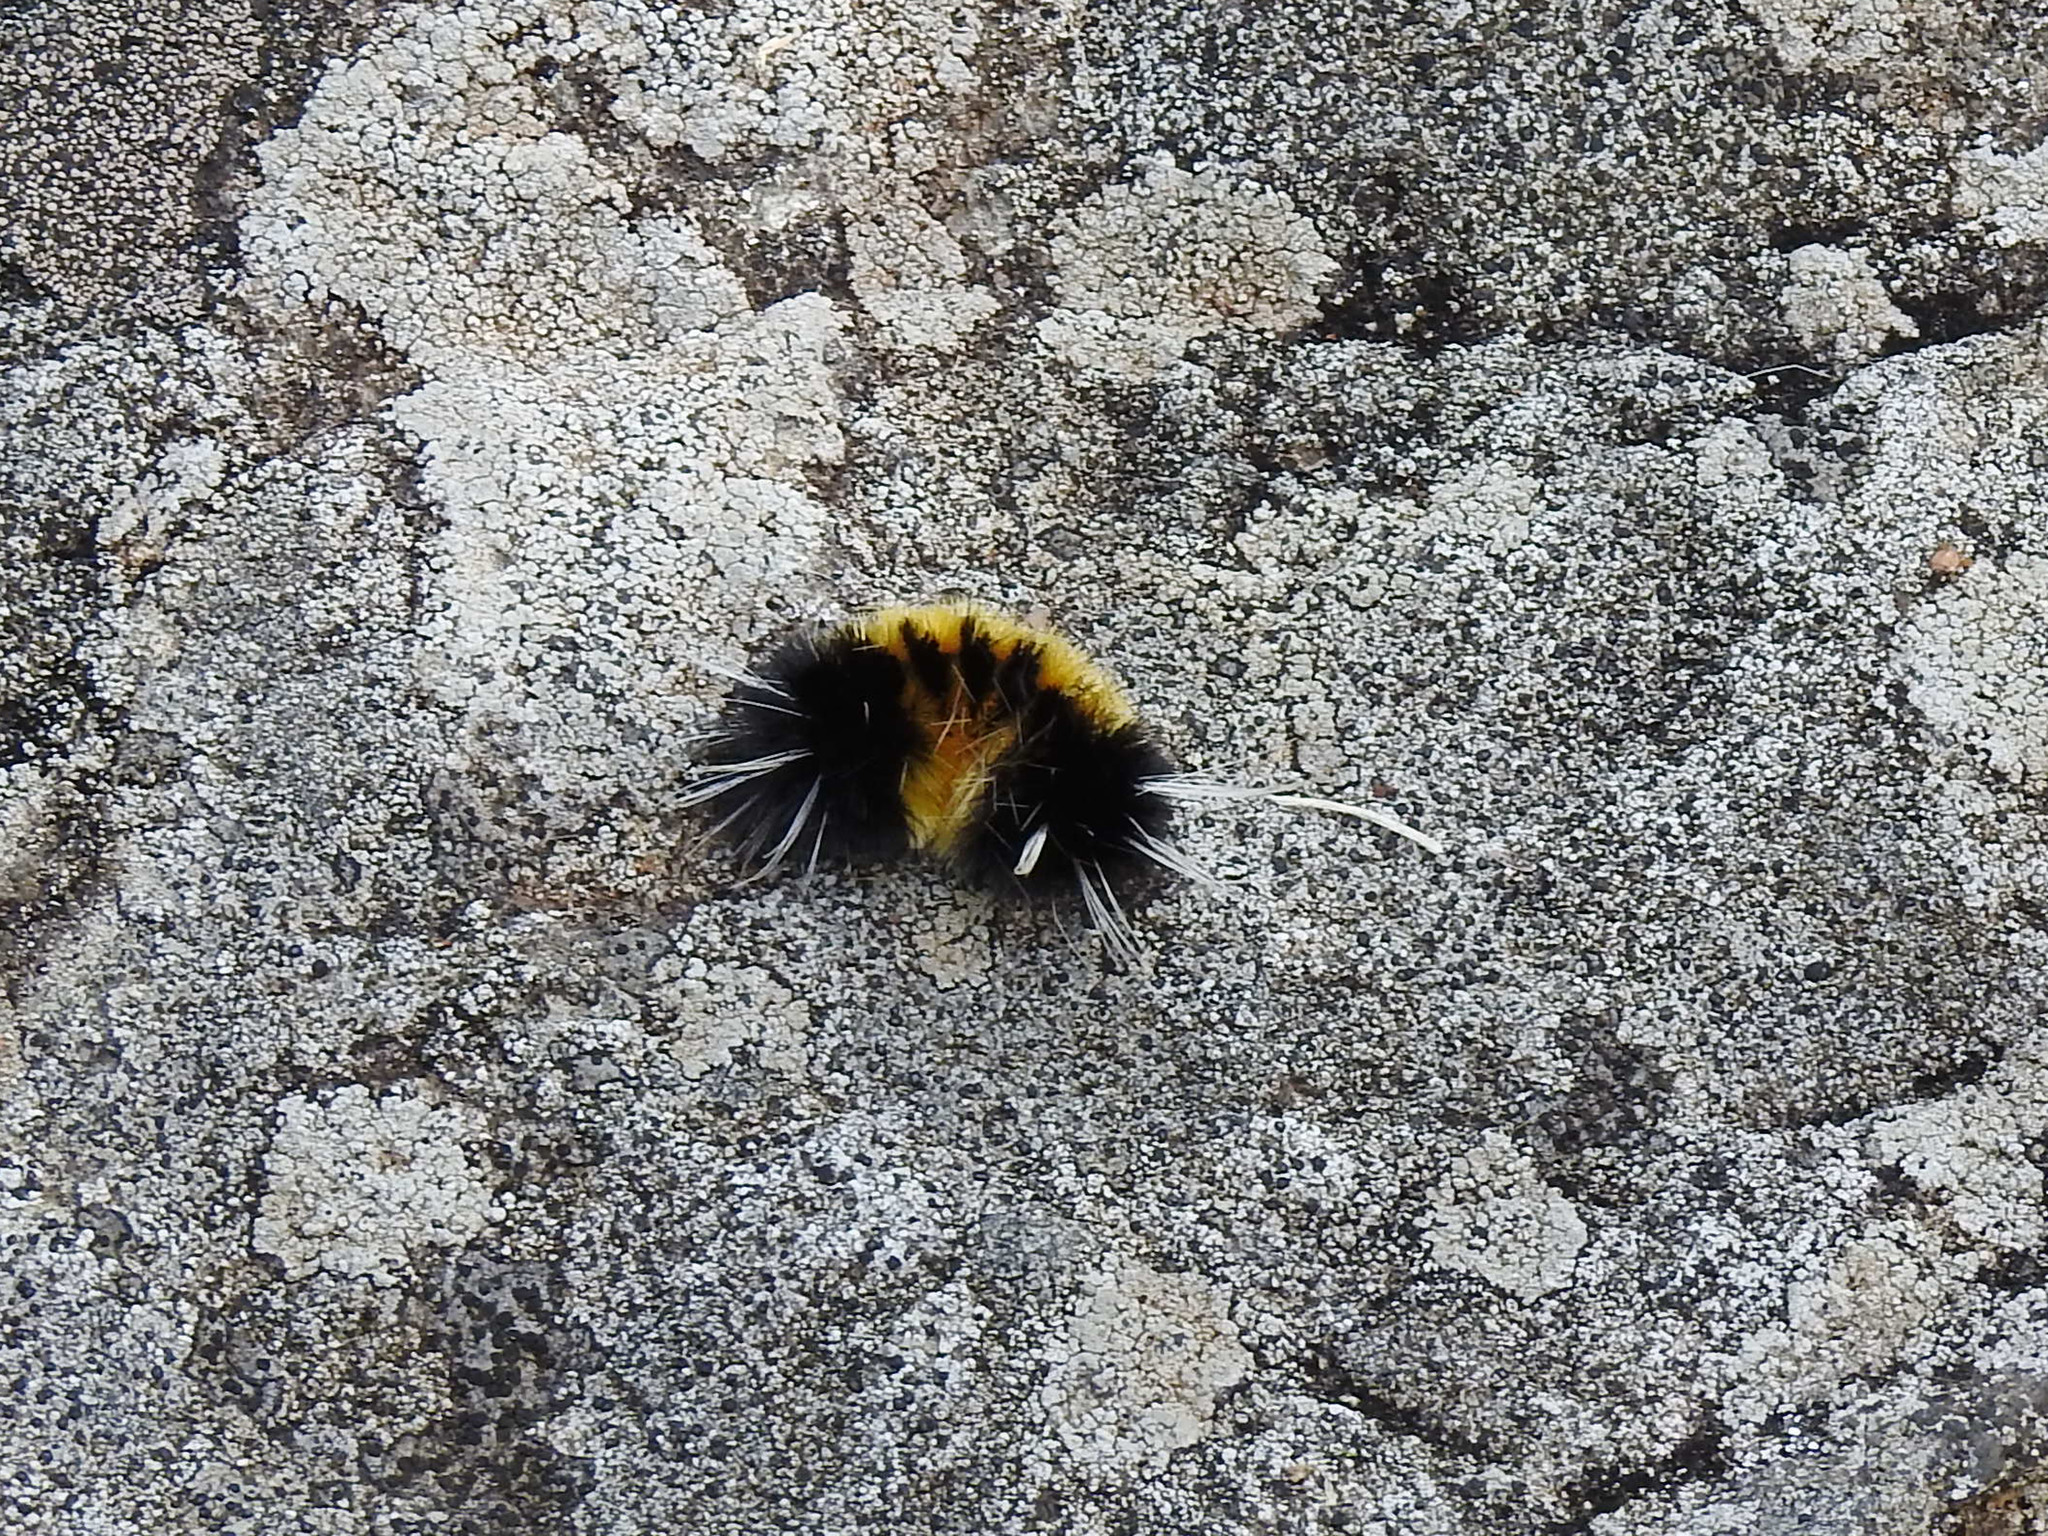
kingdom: Animalia
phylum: Arthropoda
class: Insecta
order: Lepidoptera
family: Erebidae
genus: Lophocampa
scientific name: Lophocampa maculata
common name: Spotted tussock moth
